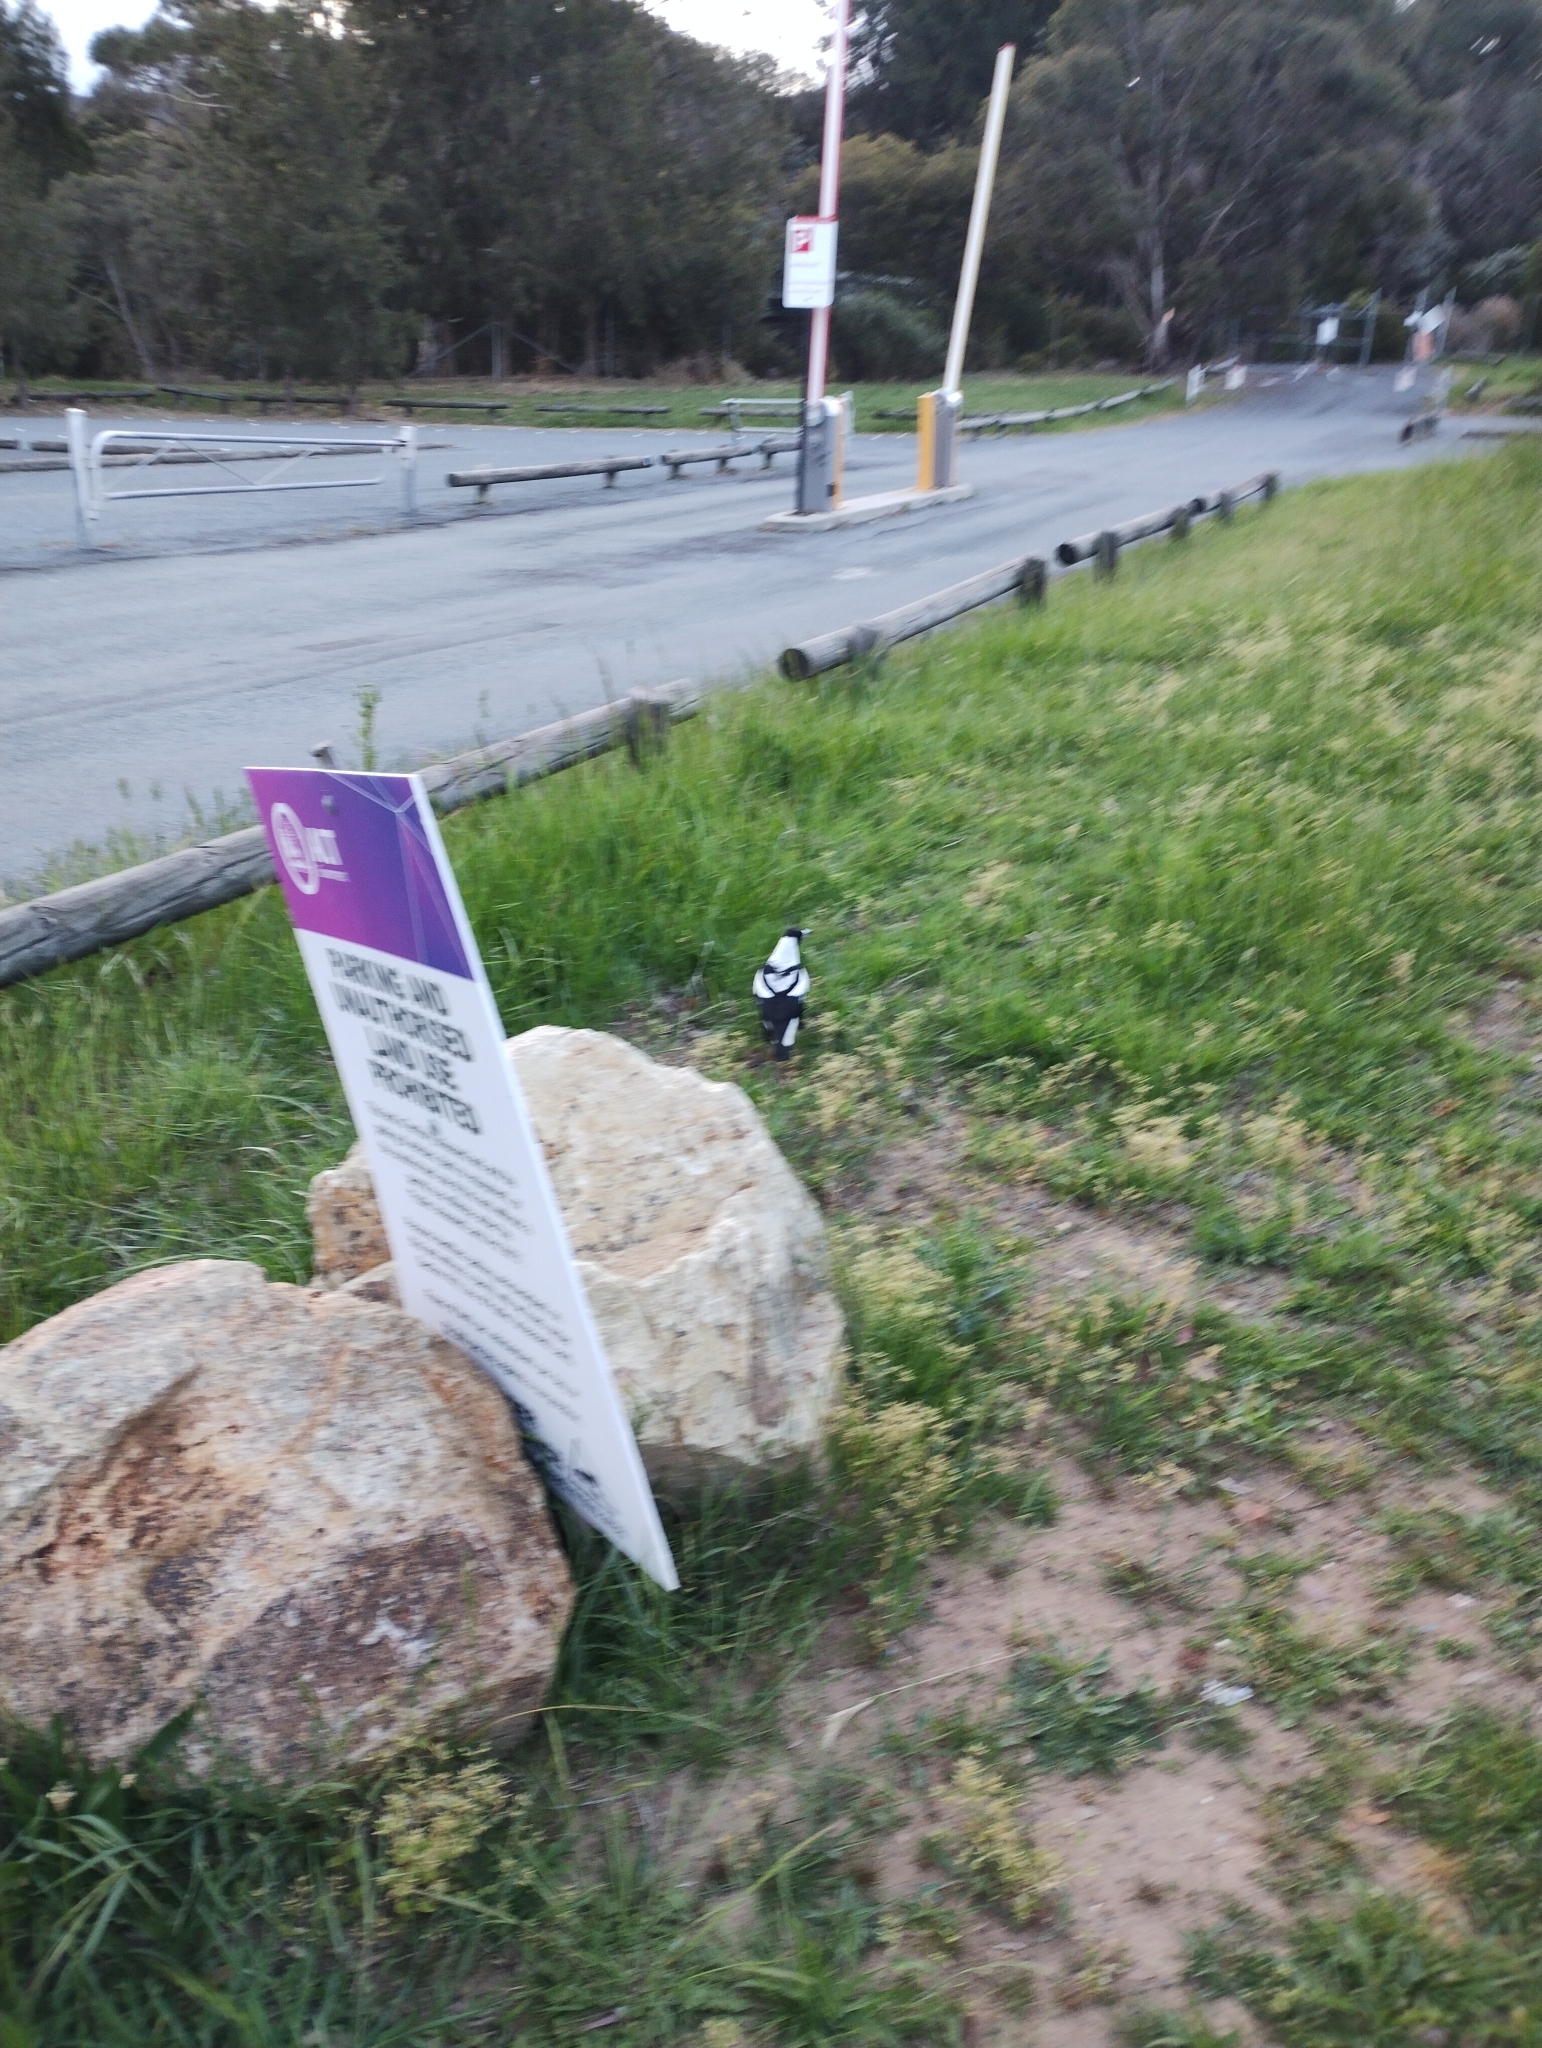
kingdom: Animalia
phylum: Chordata
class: Aves
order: Passeriformes
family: Cracticidae
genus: Gymnorhina
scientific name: Gymnorhina tibicen
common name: Australian magpie
